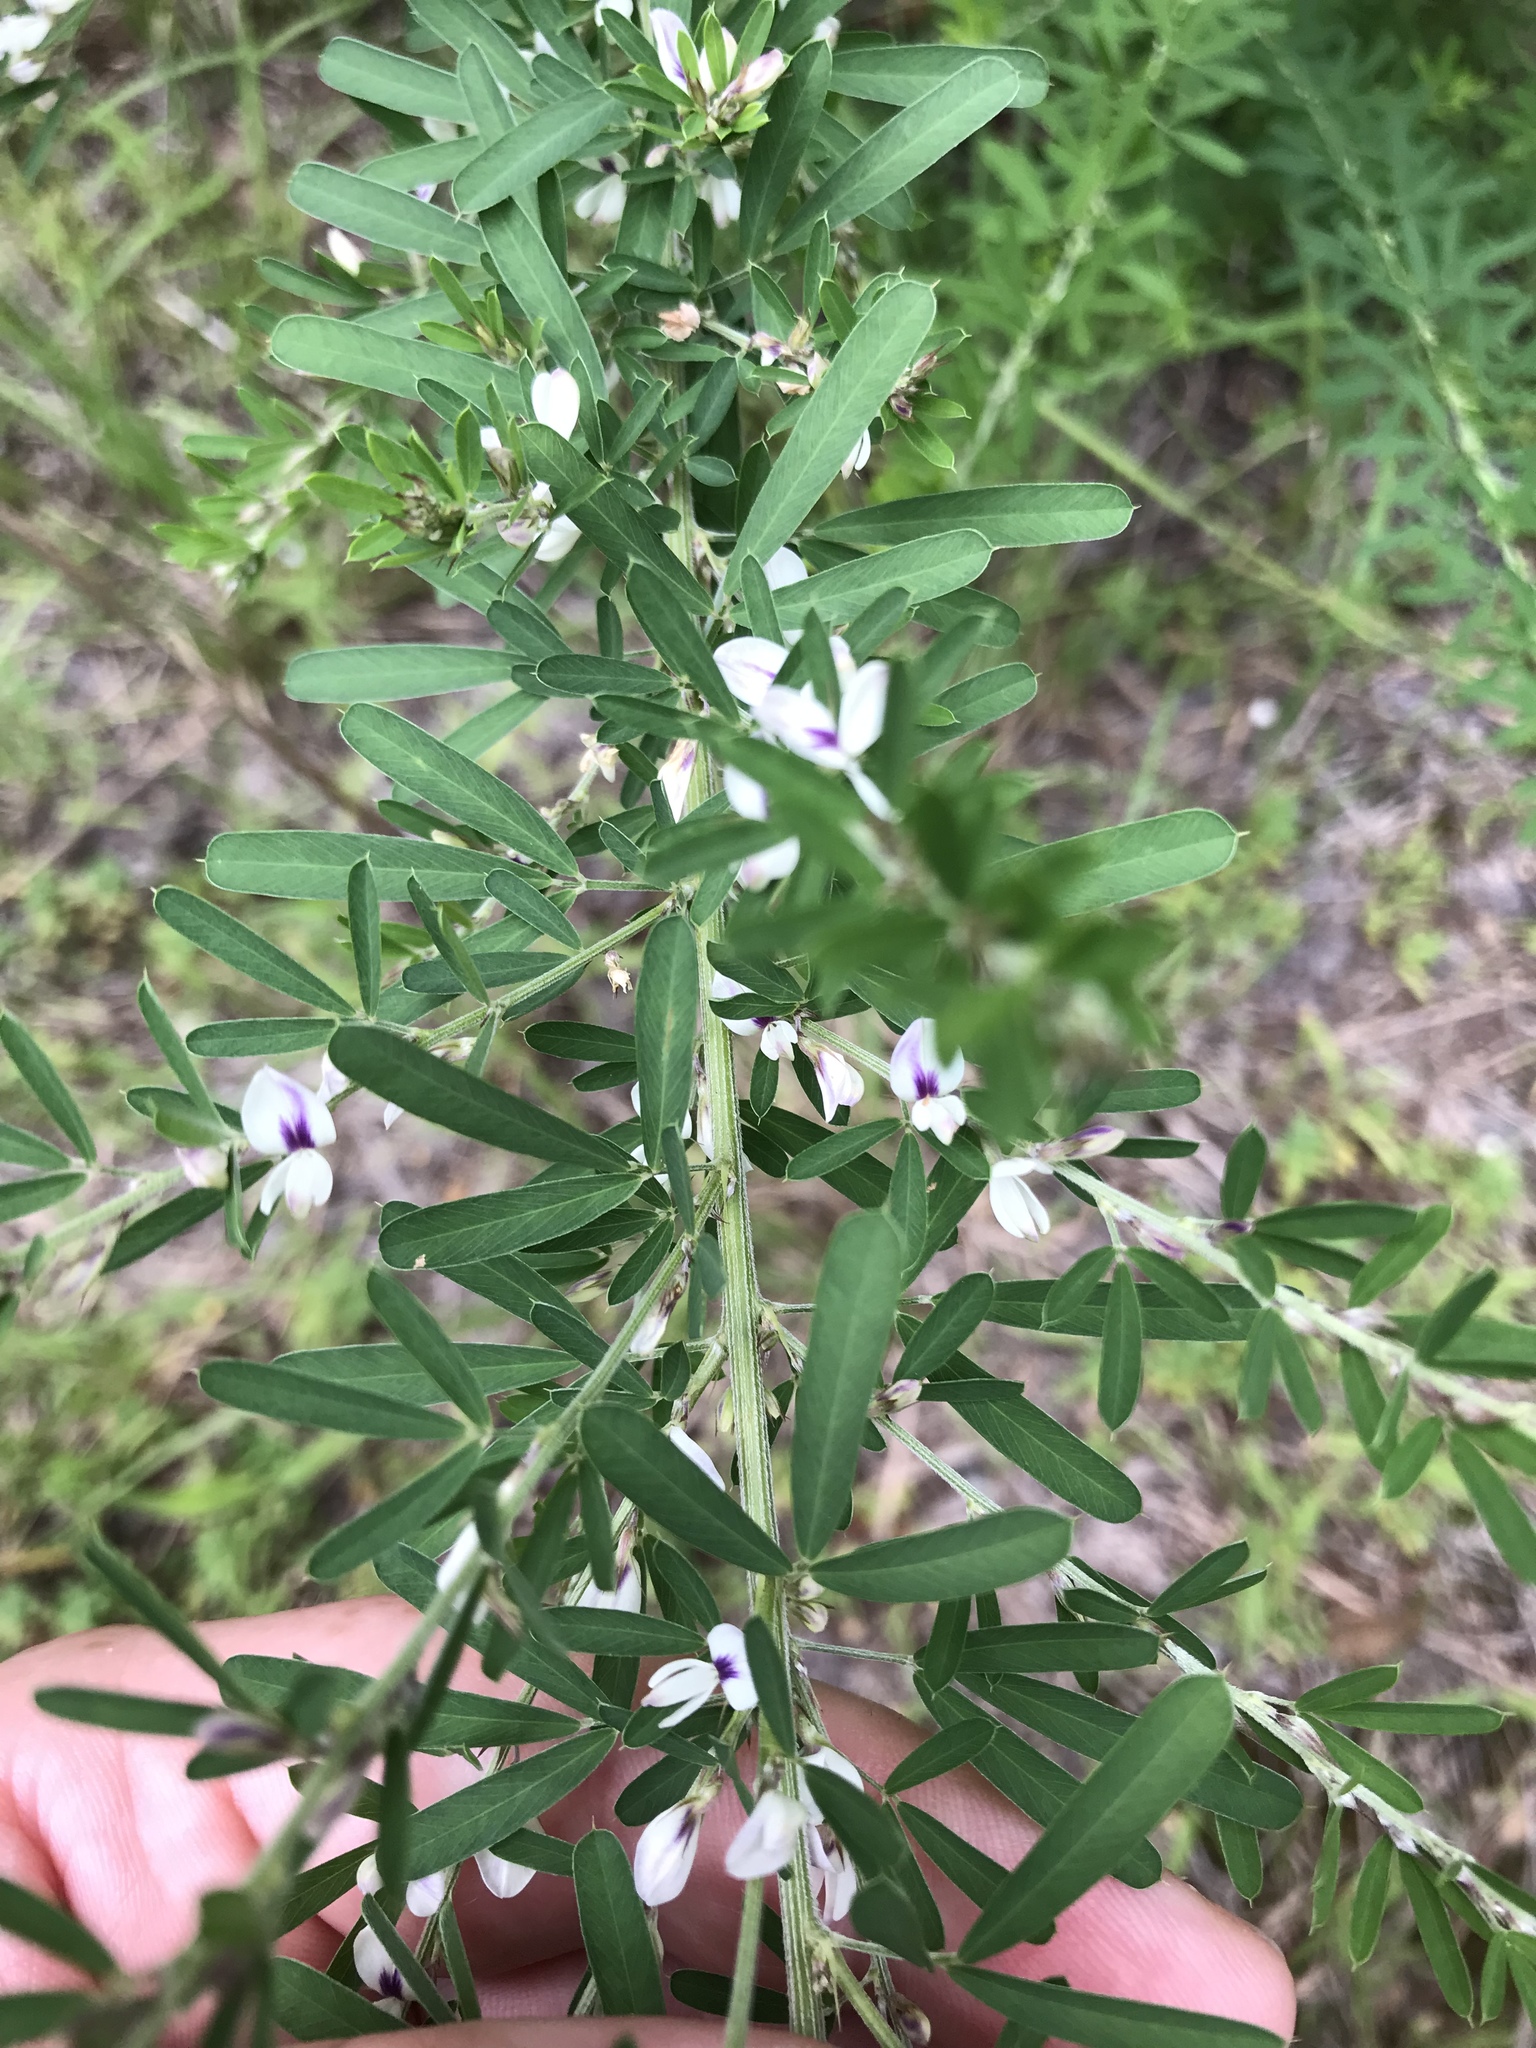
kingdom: Plantae
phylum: Tracheophyta
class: Magnoliopsida
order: Fabales
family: Fabaceae
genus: Lespedeza
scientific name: Lespedeza cuneata
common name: Chinese bush-clover
